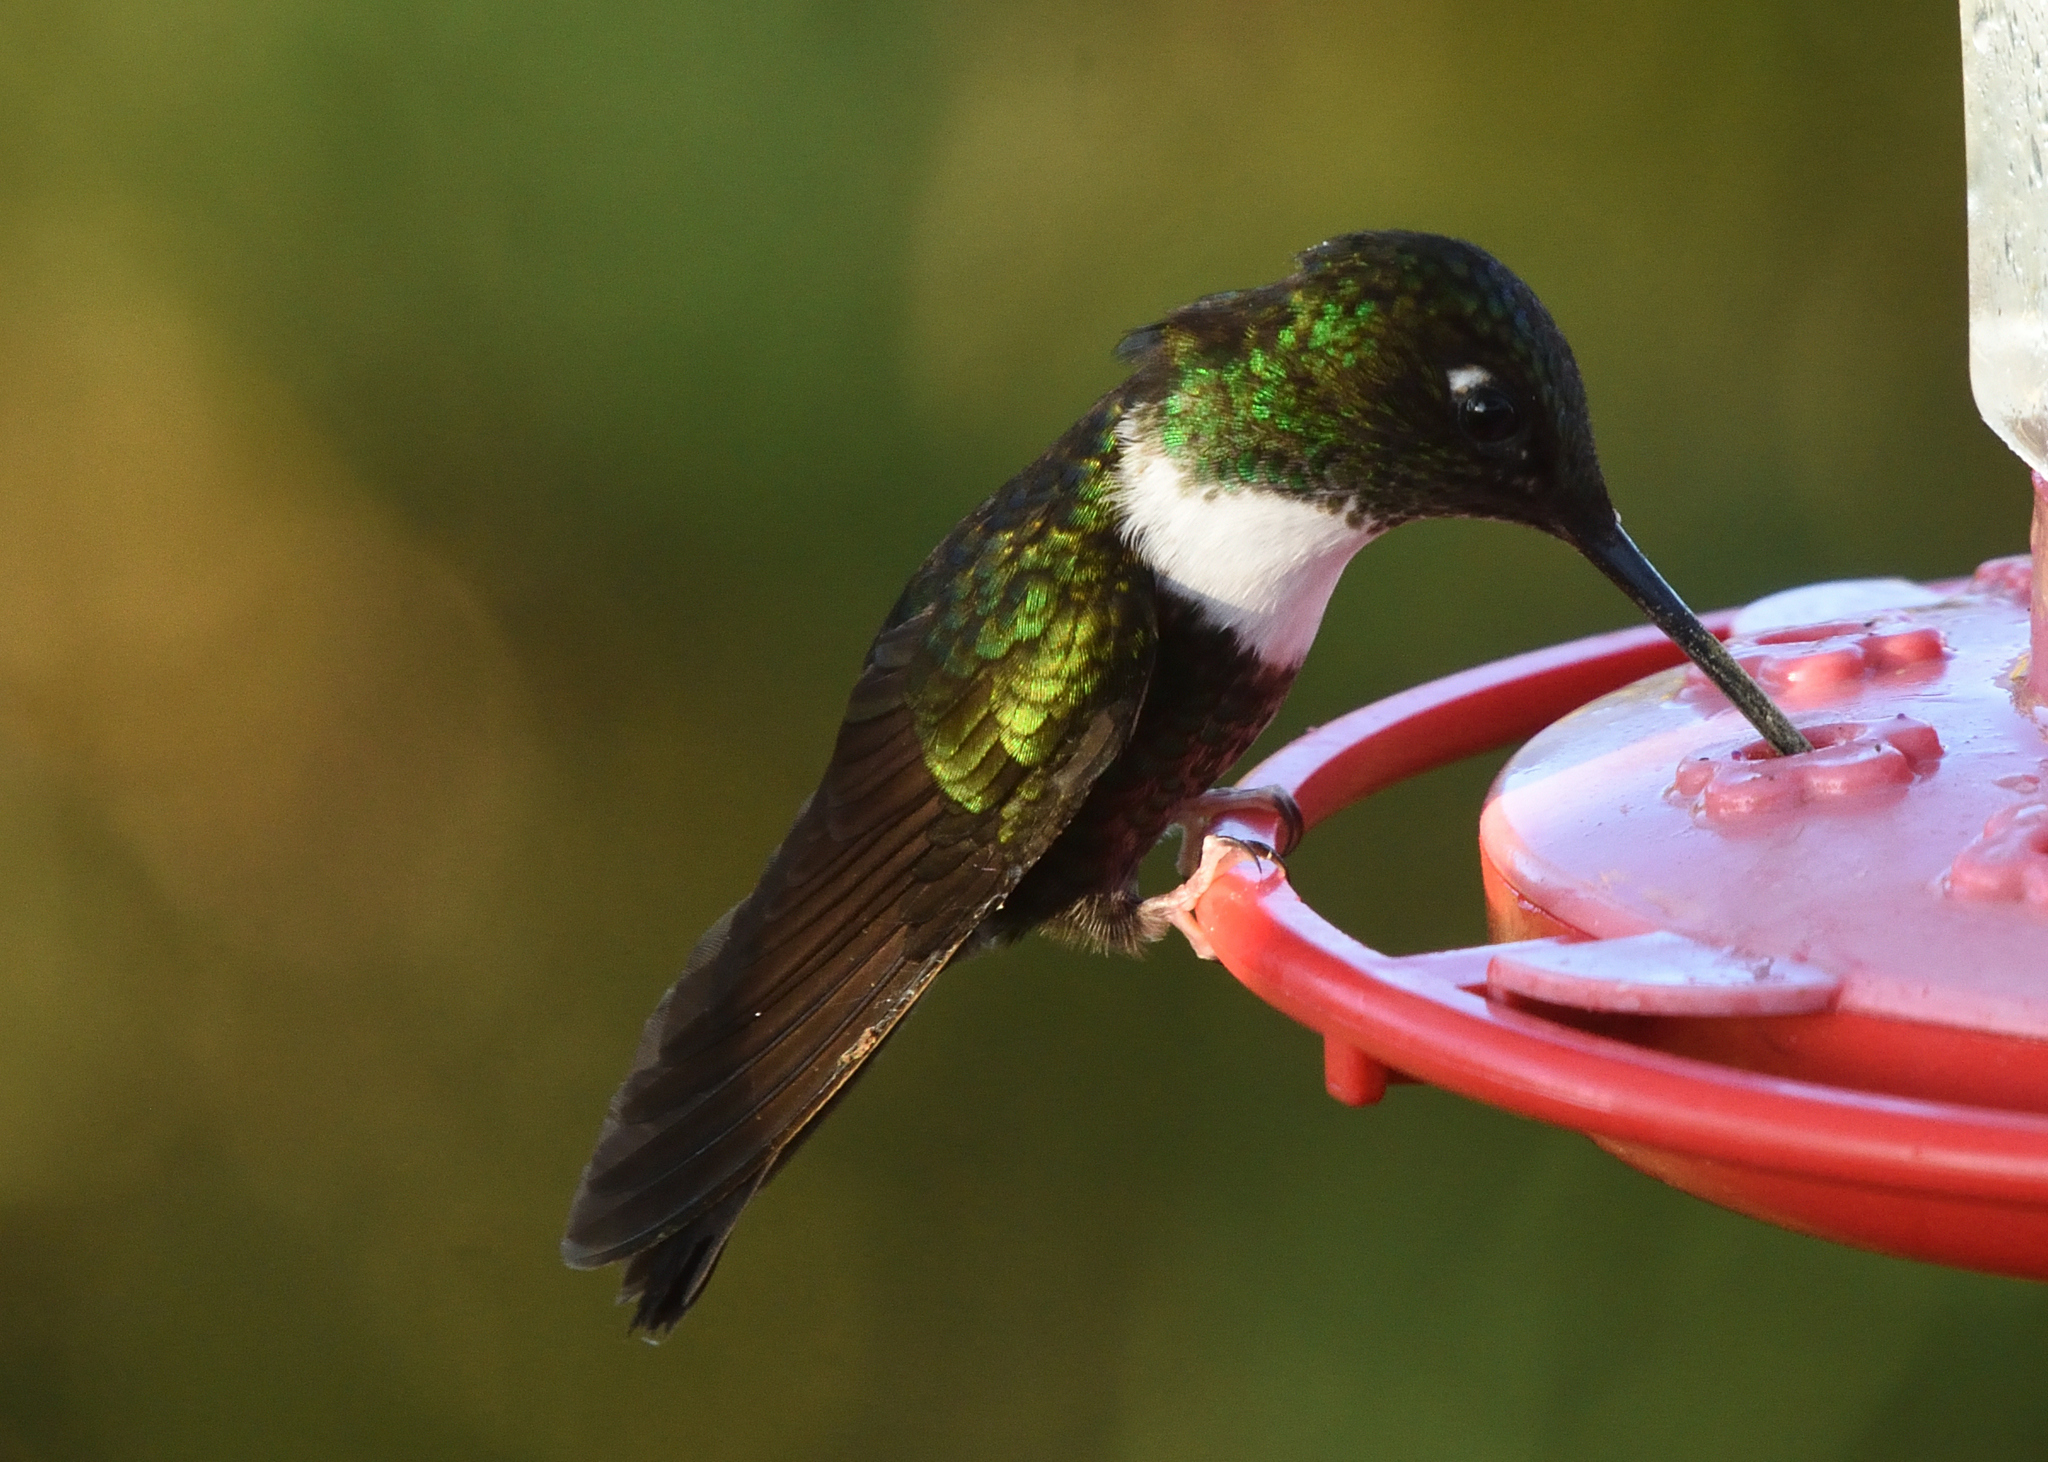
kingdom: Animalia
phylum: Chordata
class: Aves
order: Apodiformes
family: Trochilidae
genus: Coeligena
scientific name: Coeligena torquata
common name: Collared inca
